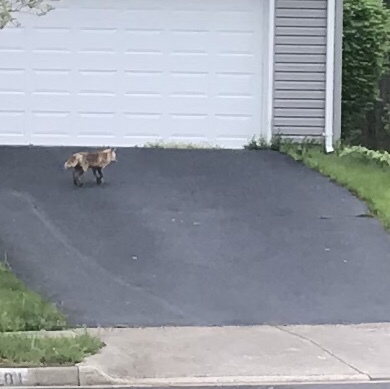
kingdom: Animalia
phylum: Chordata
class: Mammalia
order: Carnivora
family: Canidae
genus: Vulpes
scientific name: Vulpes vulpes
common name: Red fox
